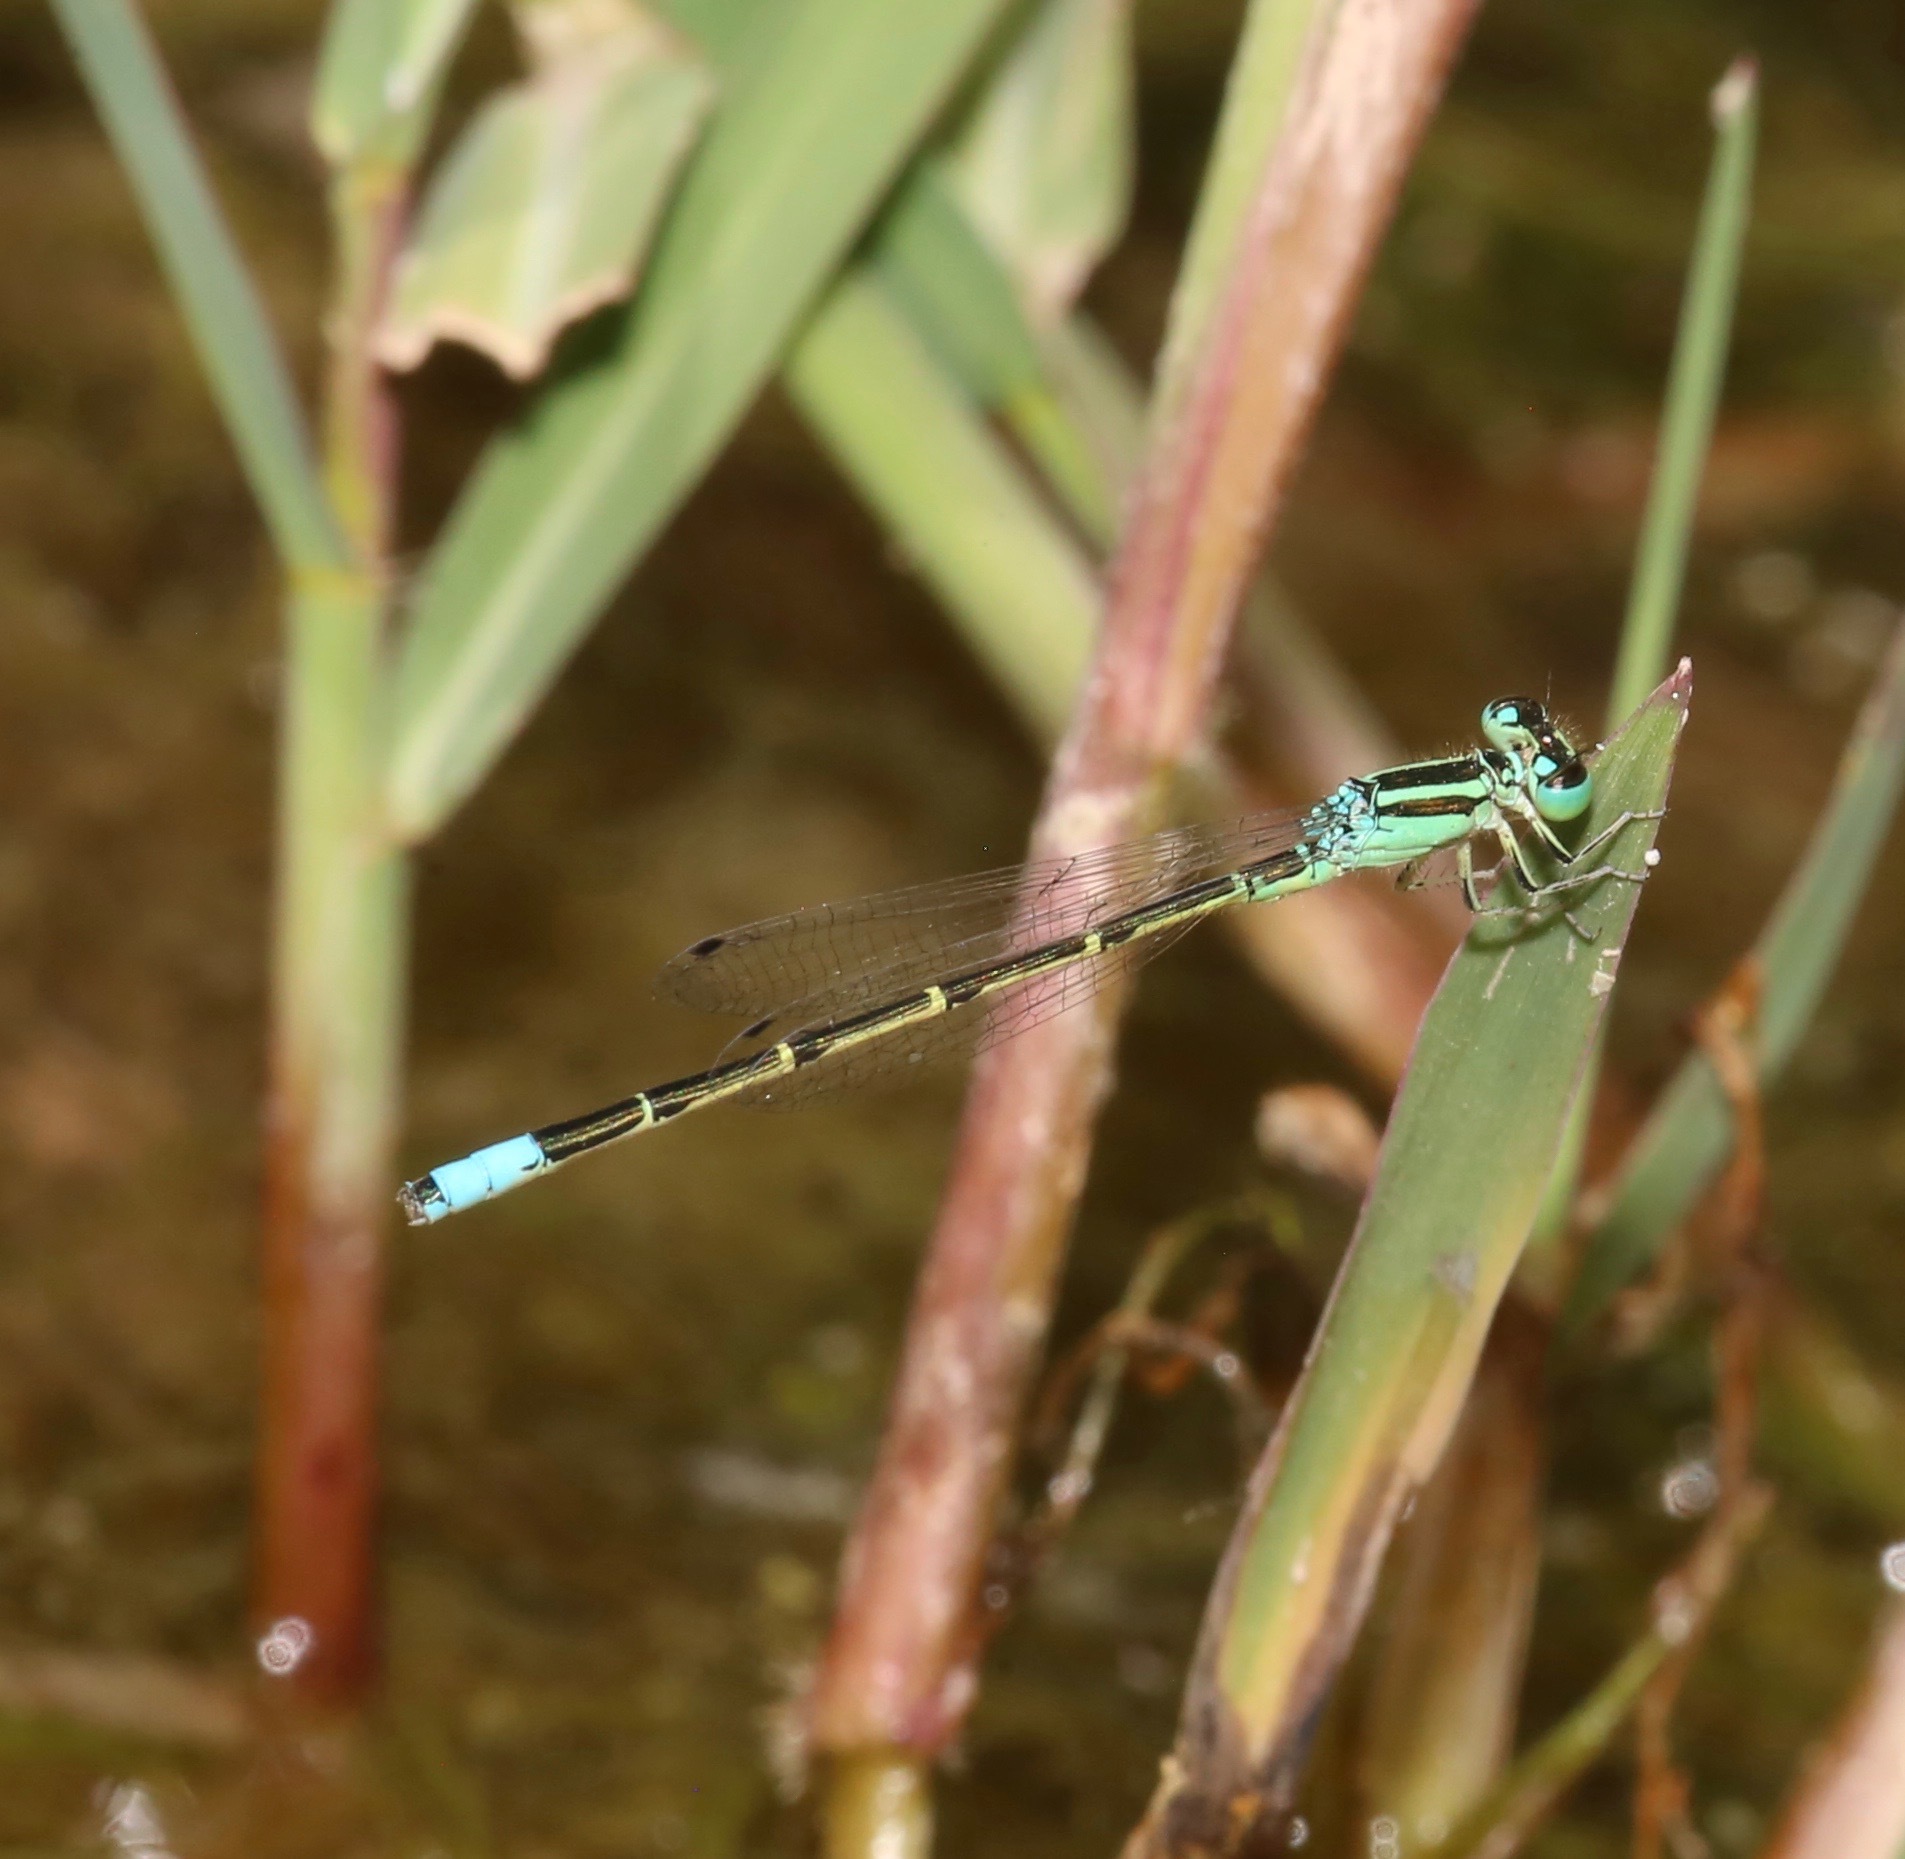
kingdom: Animalia
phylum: Arthropoda
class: Insecta
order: Odonata
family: Coenagrionidae
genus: Ischnura
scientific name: Ischnura barberi
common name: Desert forktail
